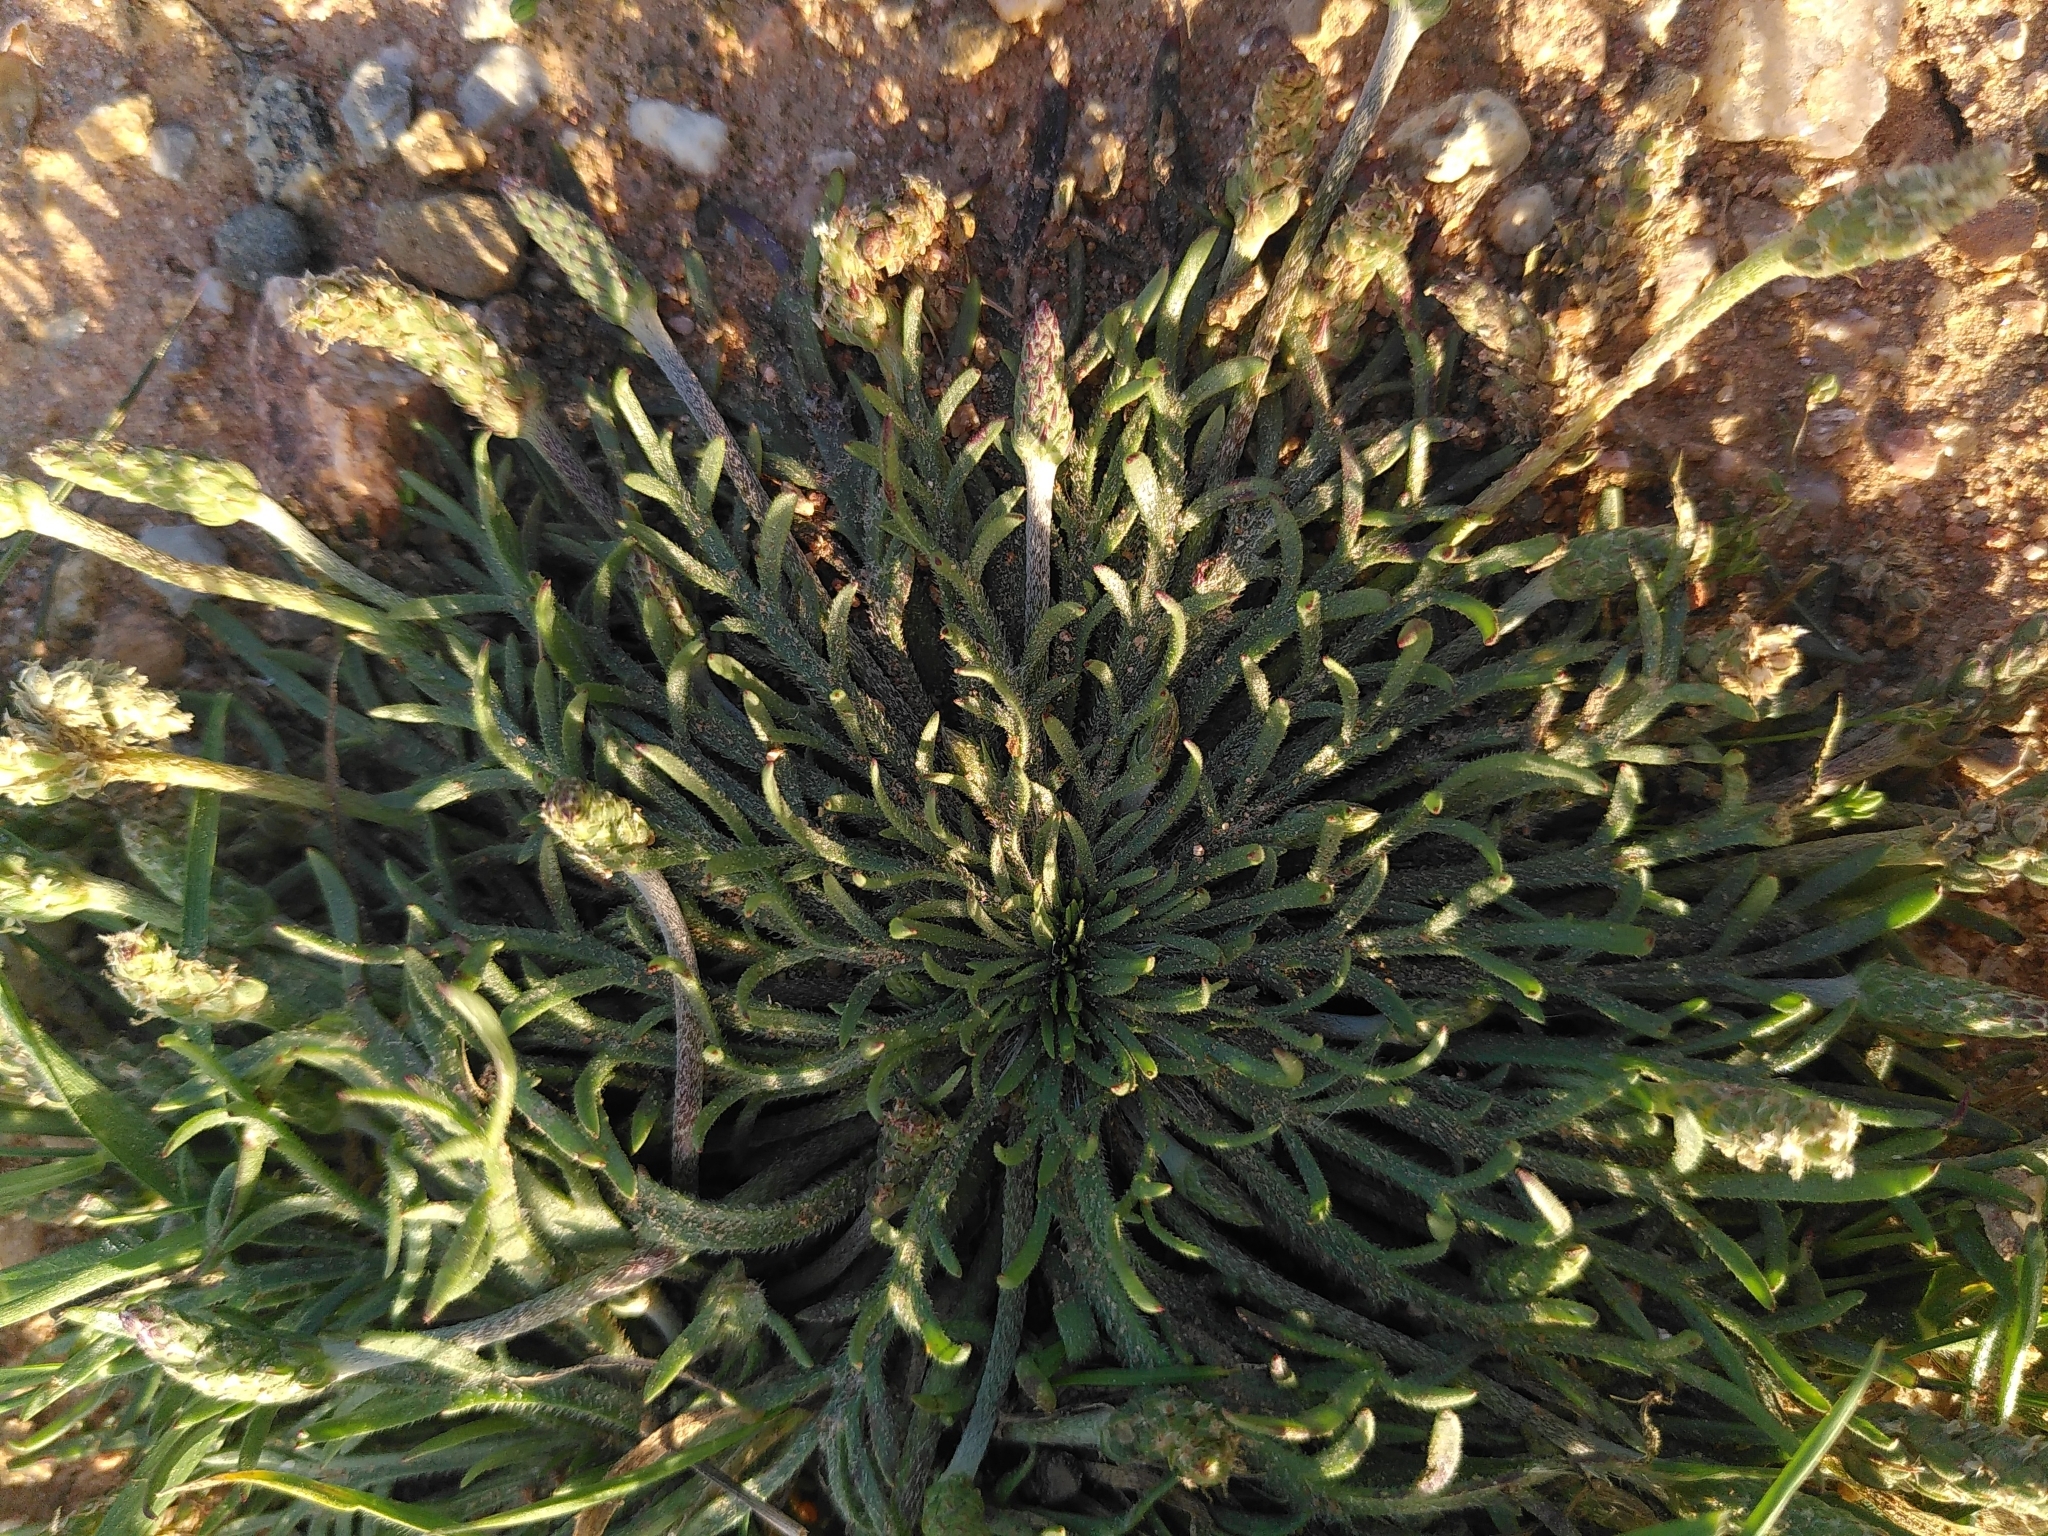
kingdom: Plantae
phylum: Tracheophyta
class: Magnoliopsida
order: Lamiales
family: Plantaginaceae
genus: Plantago
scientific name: Plantago coronopus
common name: Buck's-horn plantain
